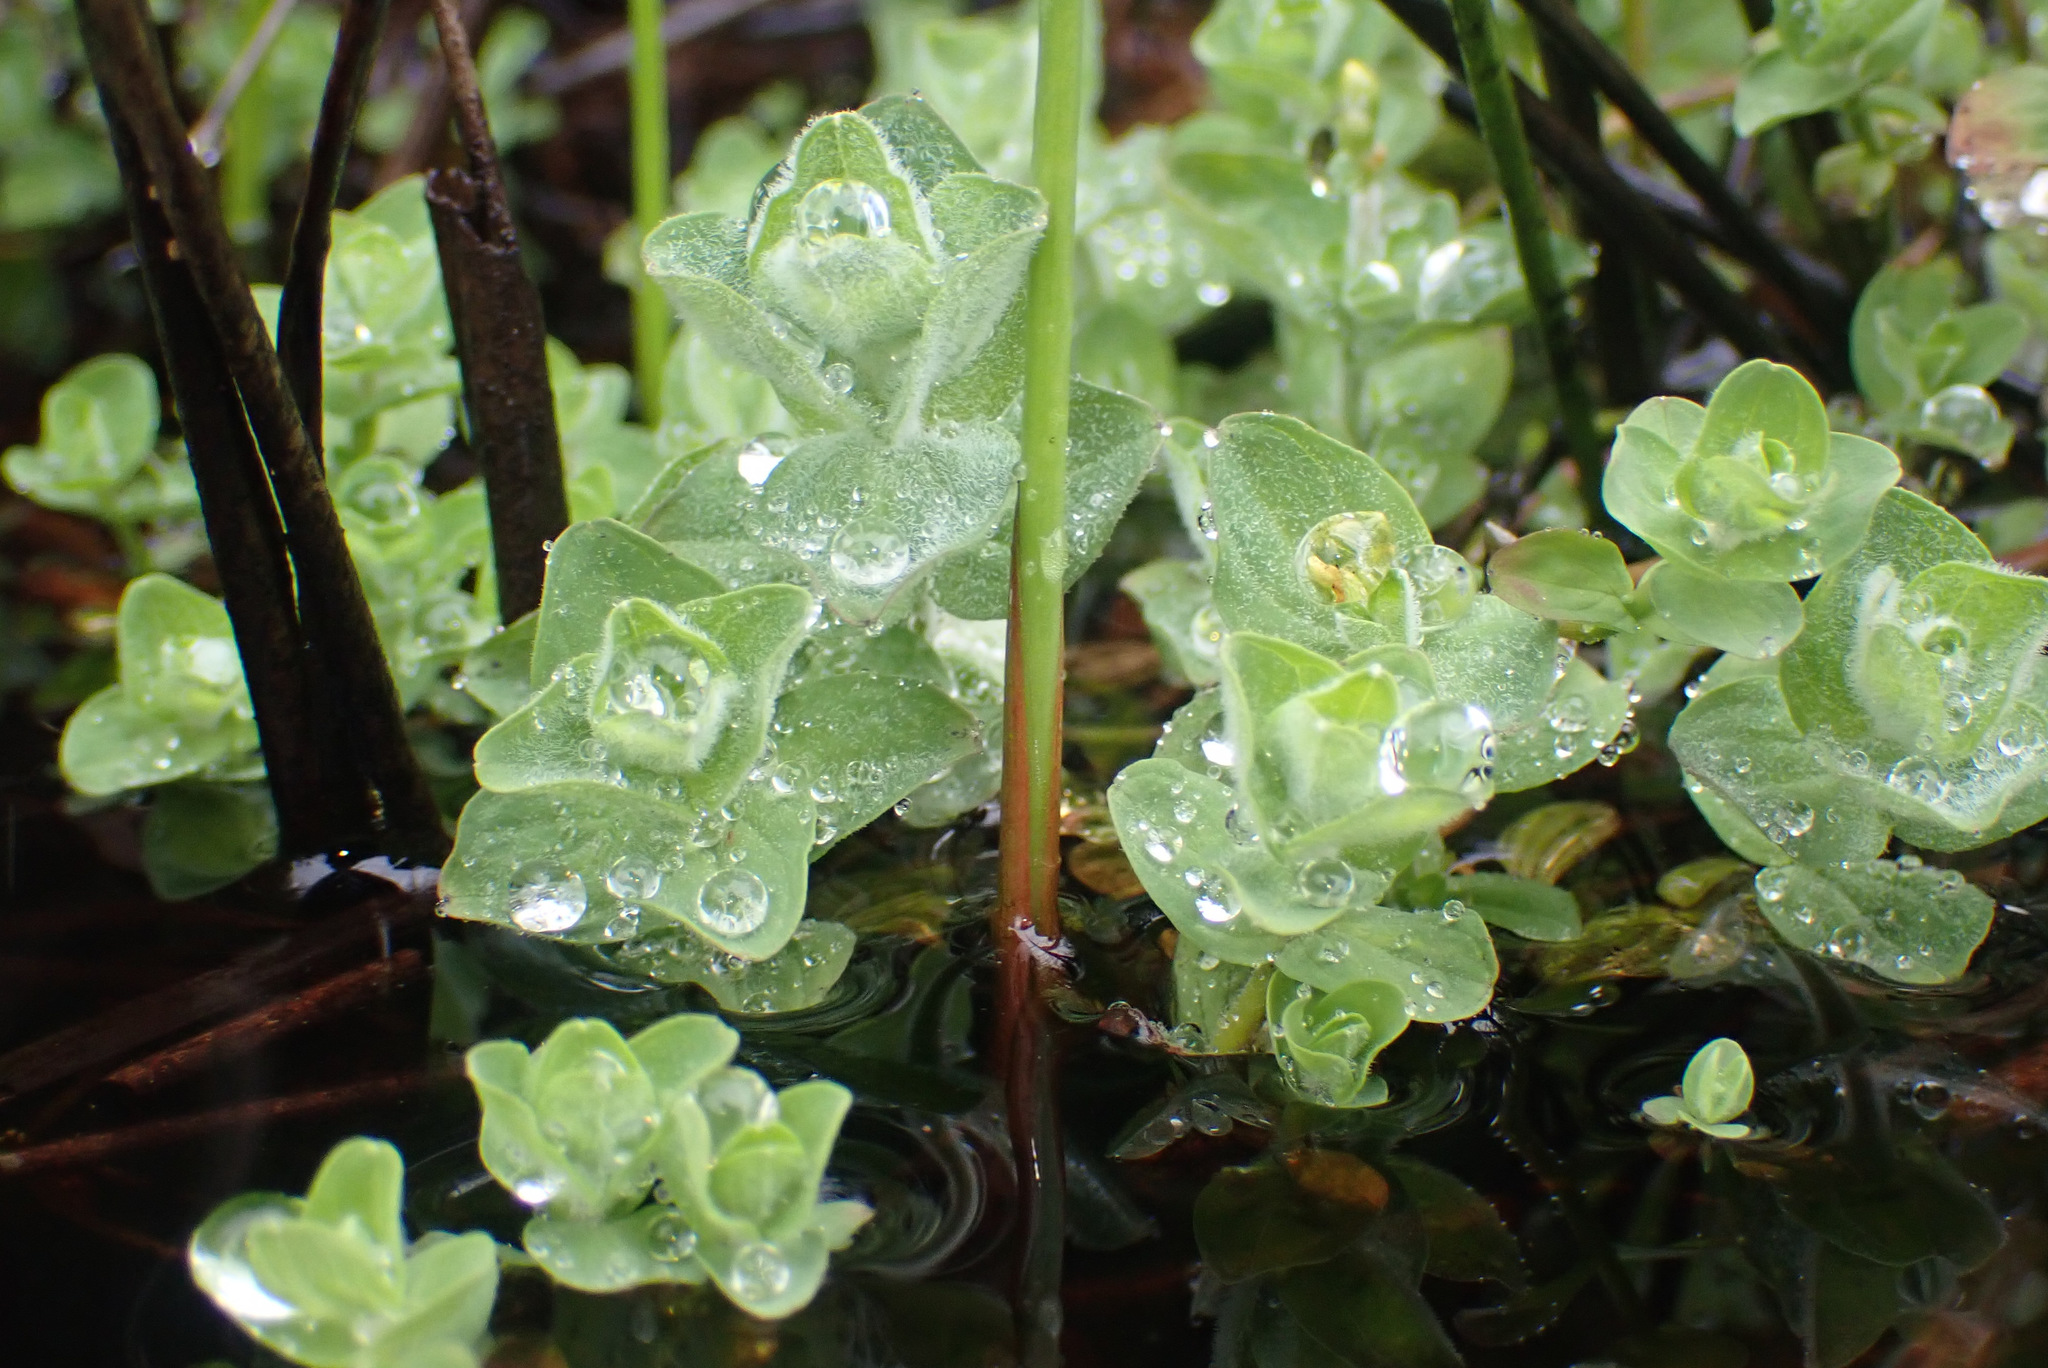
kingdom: Plantae
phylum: Tracheophyta
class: Magnoliopsida
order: Malpighiales
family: Hypericaceae
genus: Hypericum
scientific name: Hypericum elodes
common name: Marsh st. john's-wort
